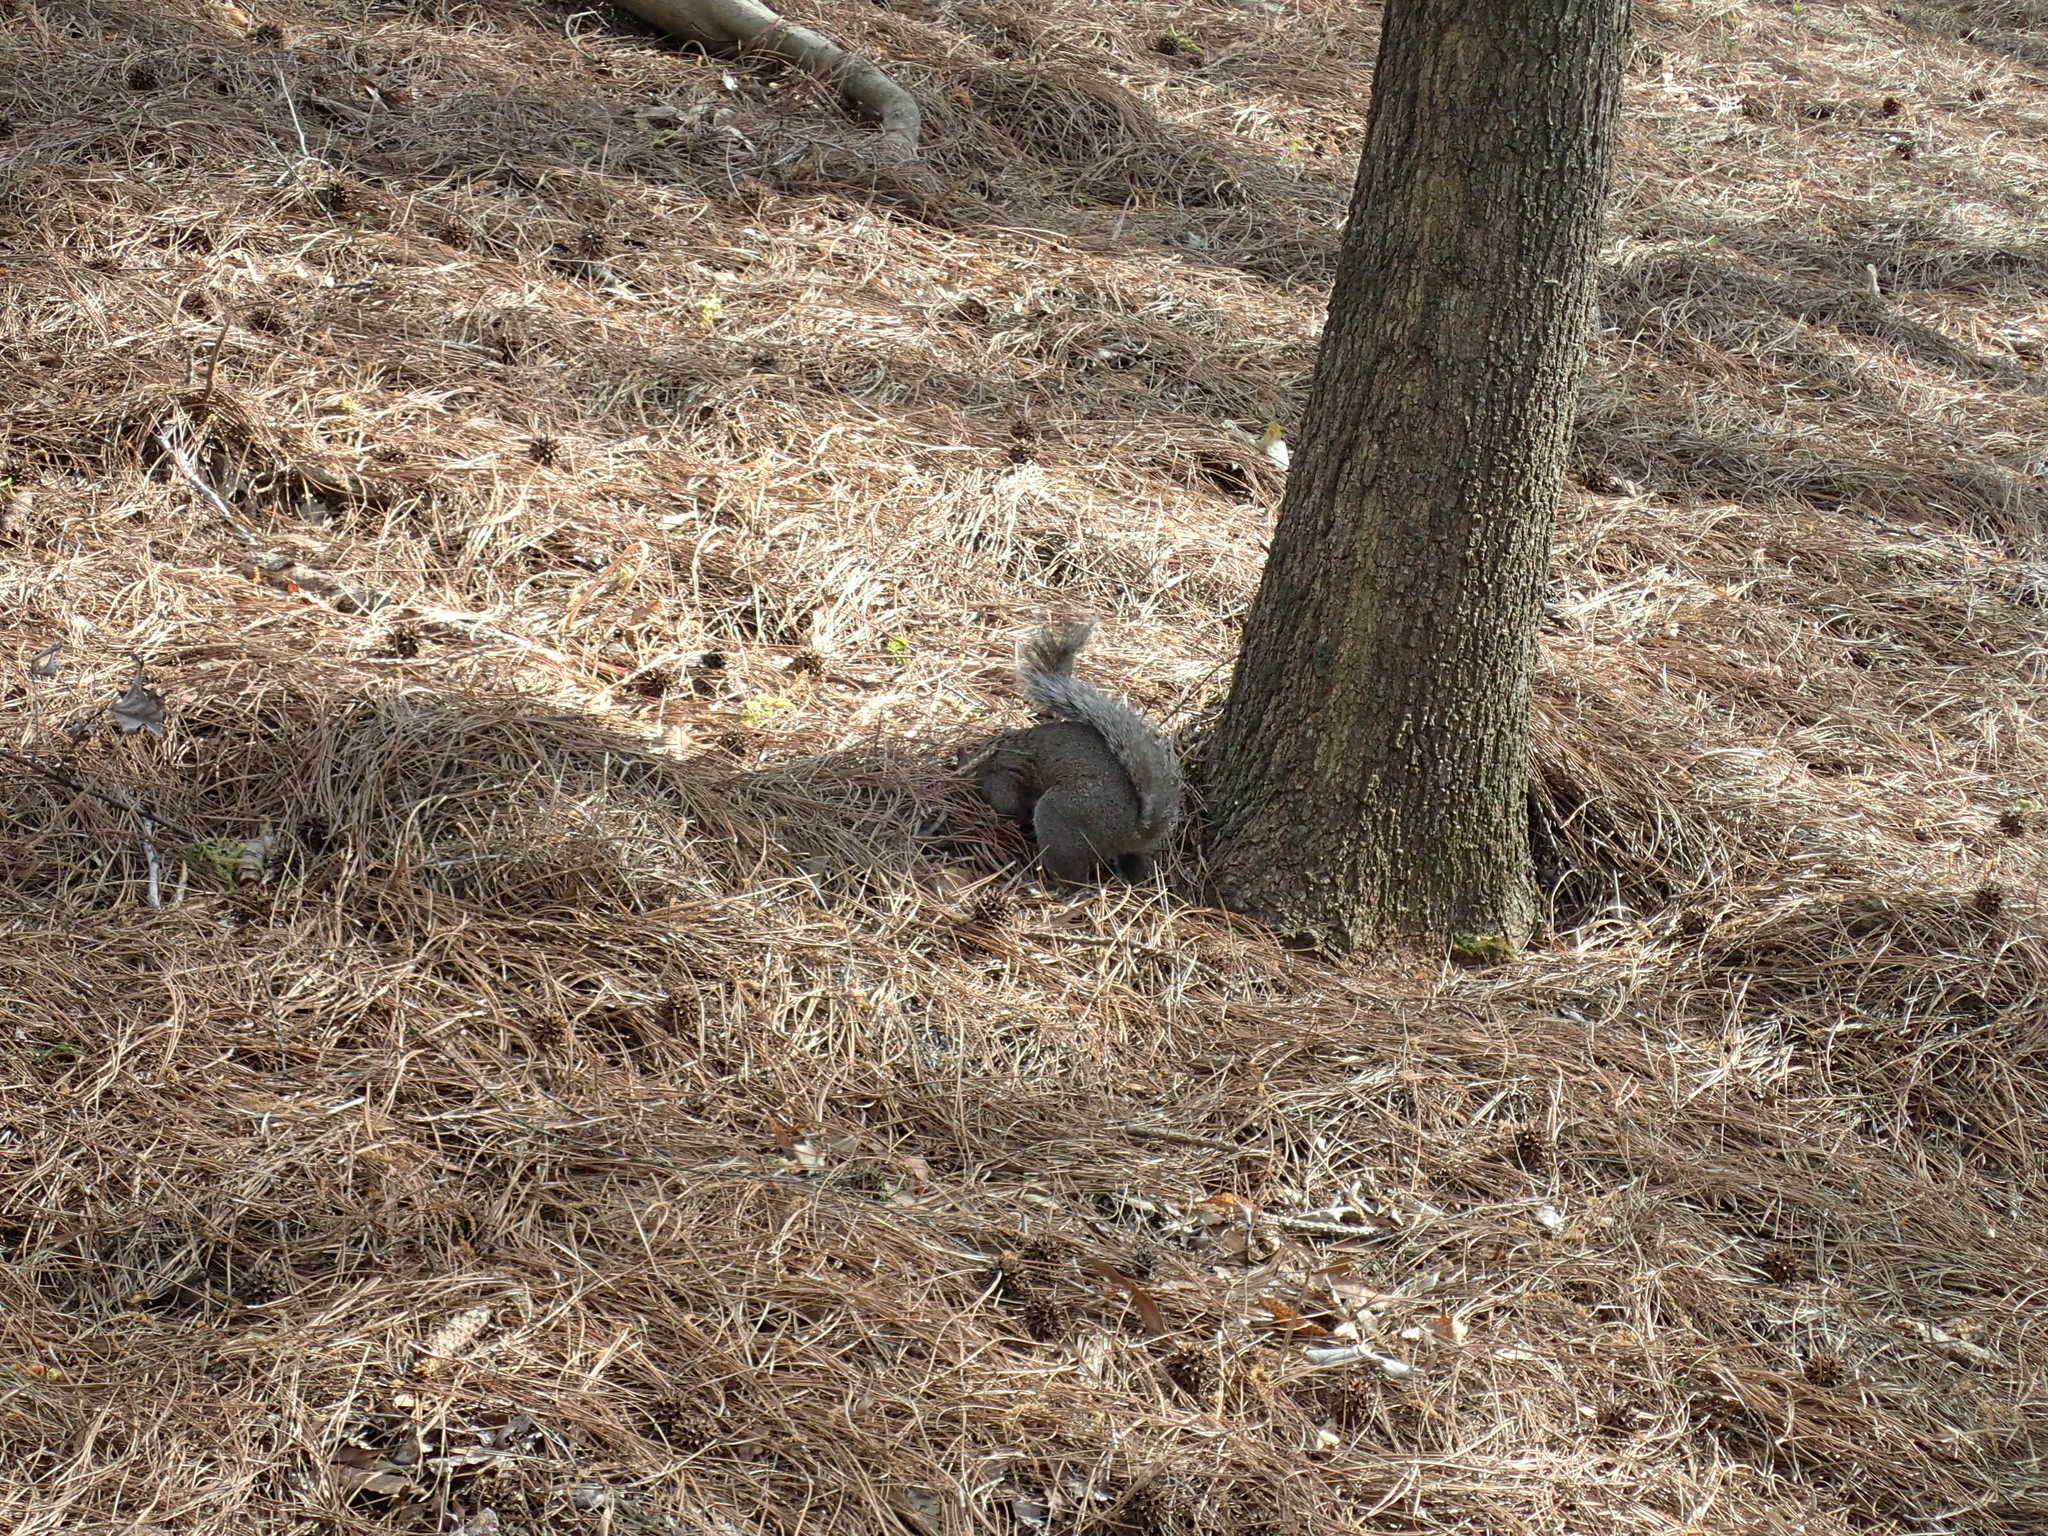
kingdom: Animalia
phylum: Chordata
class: Mammalia
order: Rodentia
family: Sciuridae
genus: Sciurus
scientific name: Sciurus carolinensis
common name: Eastern gray squirrel
